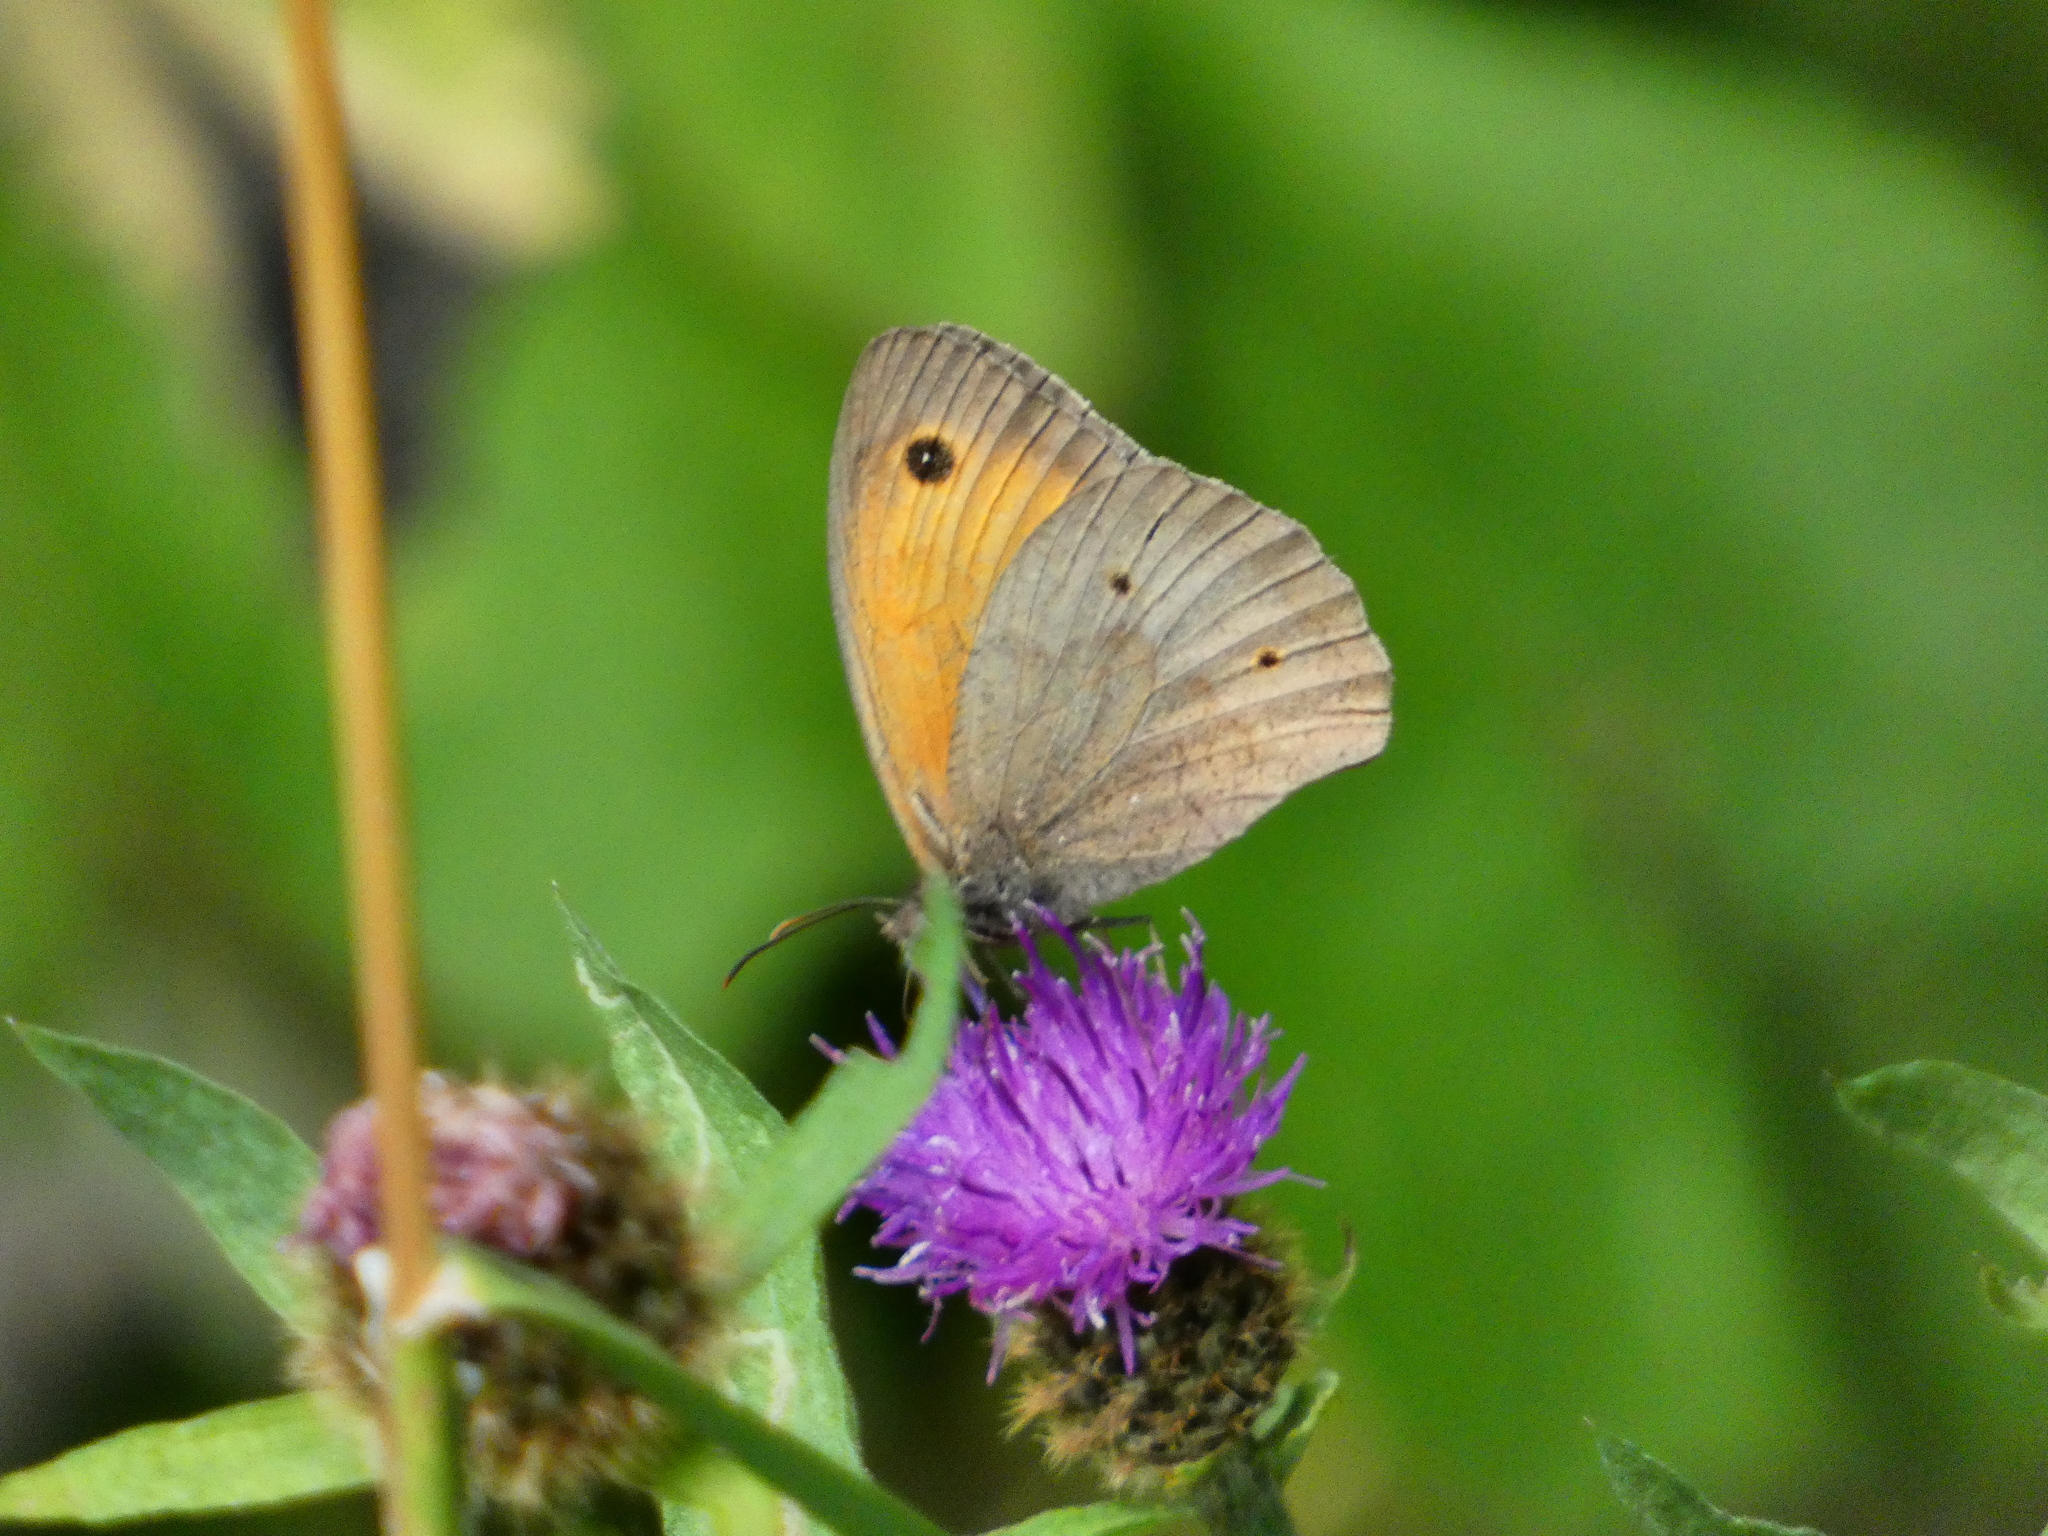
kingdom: Animalia
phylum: Arthropoda
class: Insecta
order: Lepidoptera
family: Nymphalidae
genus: Maniola
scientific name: Maniola jurtina
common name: Meadow brown
